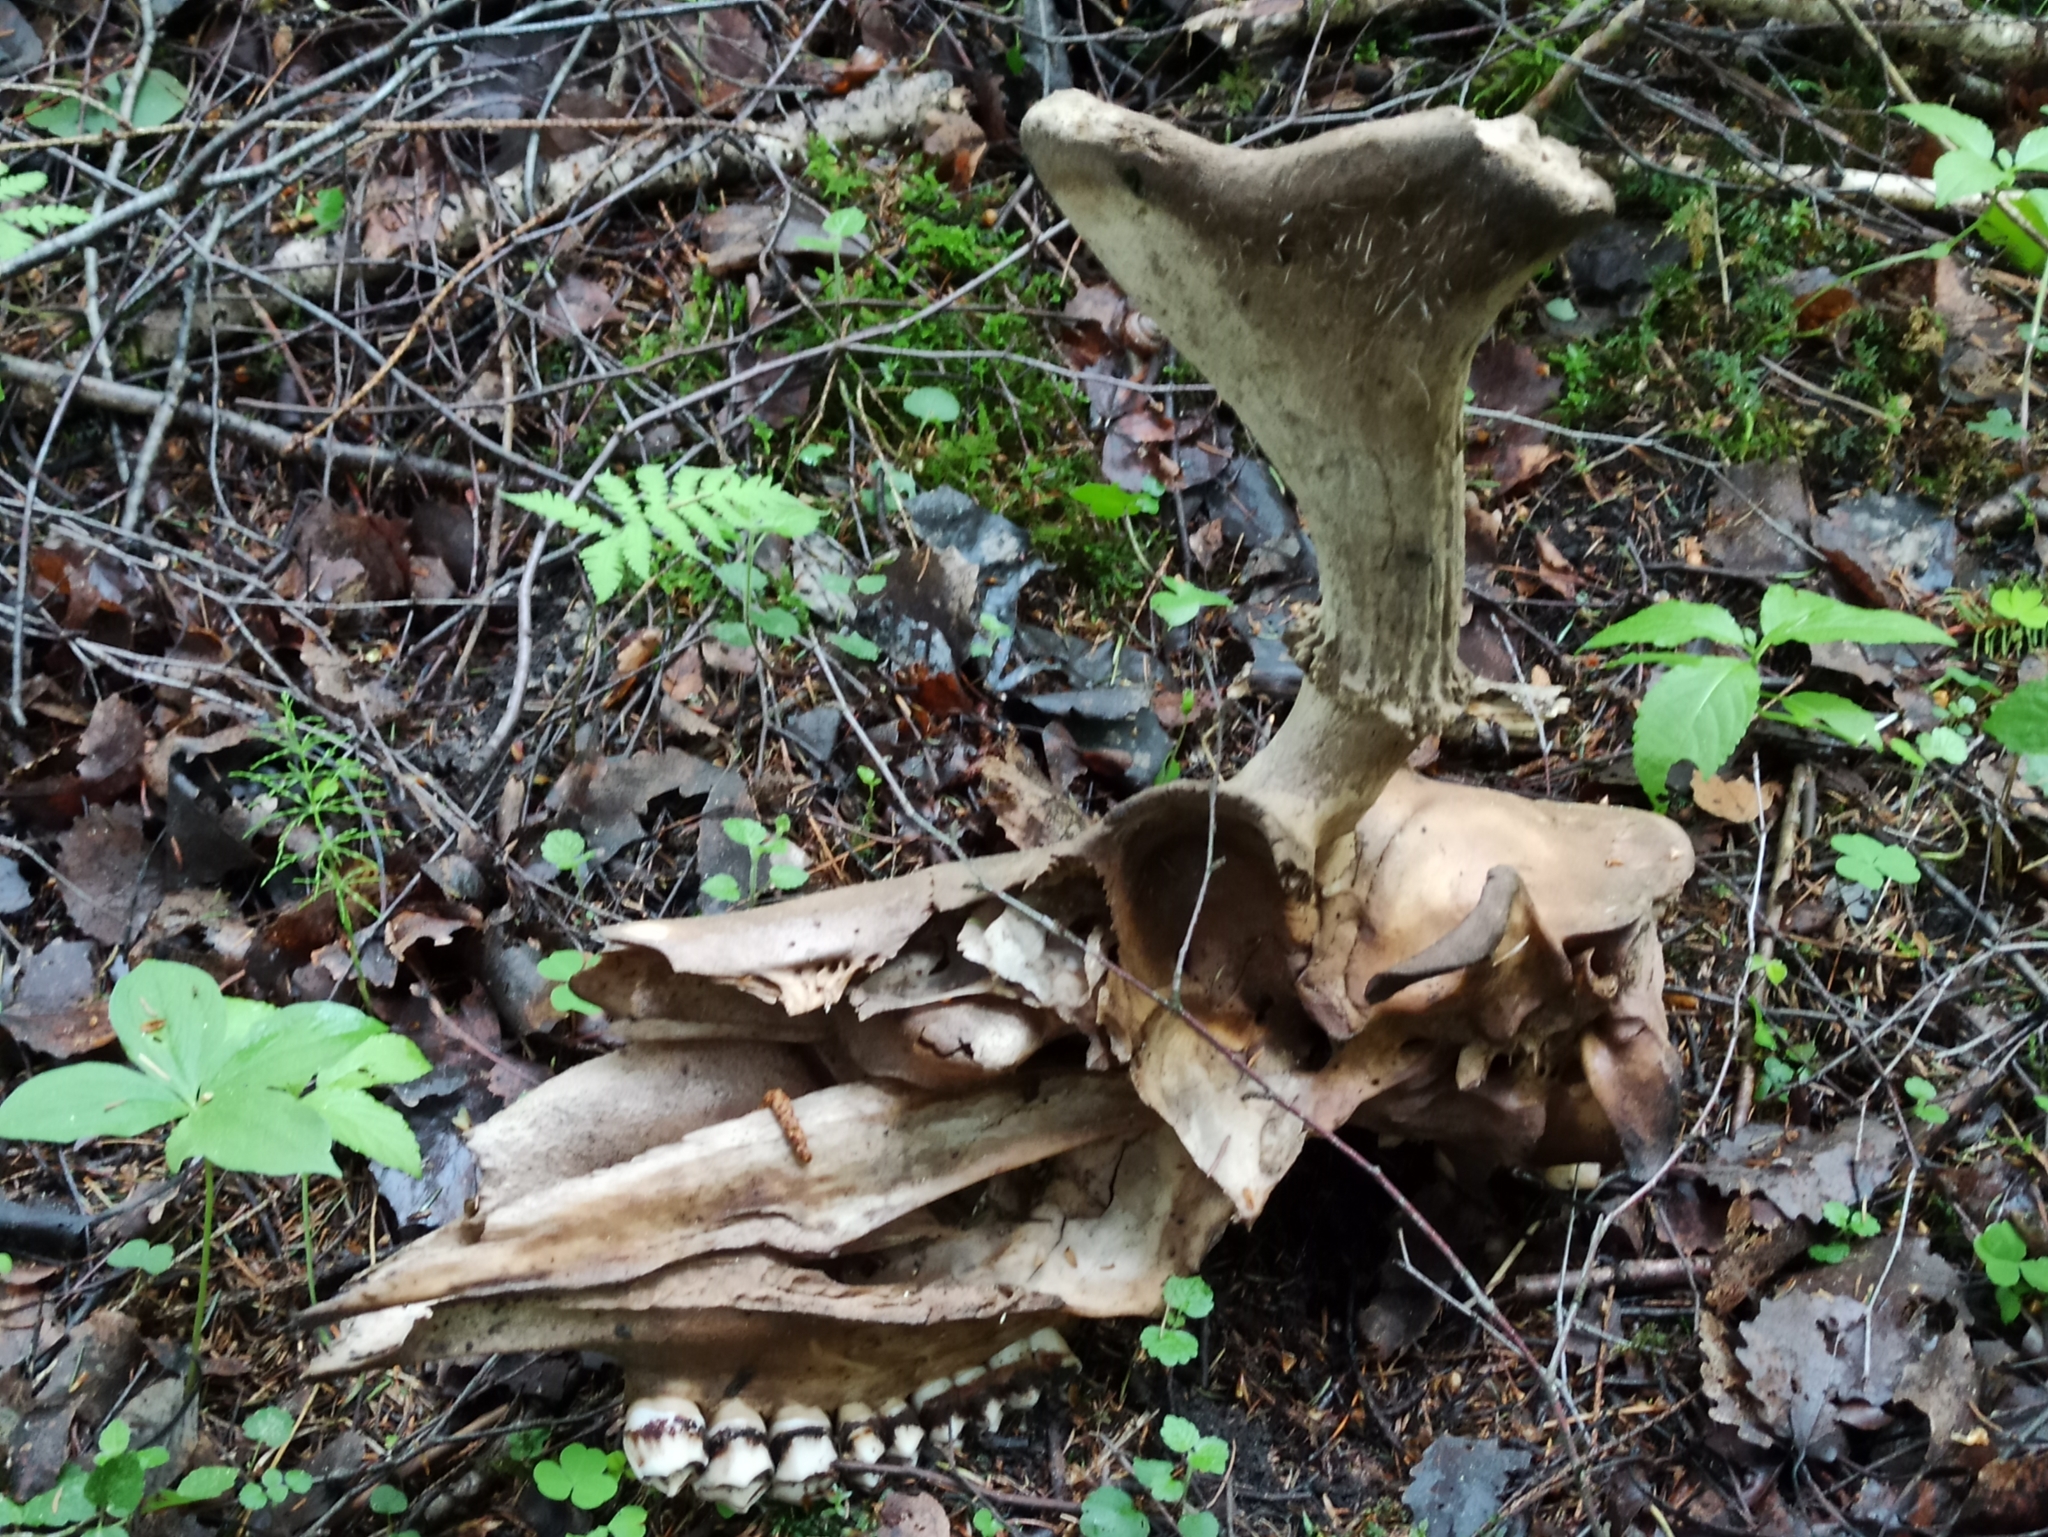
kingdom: Animalia
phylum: Chordata
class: Mammalia
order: Artiodactyla
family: Cervidae
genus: Alces
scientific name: Alces alces
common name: Moose
